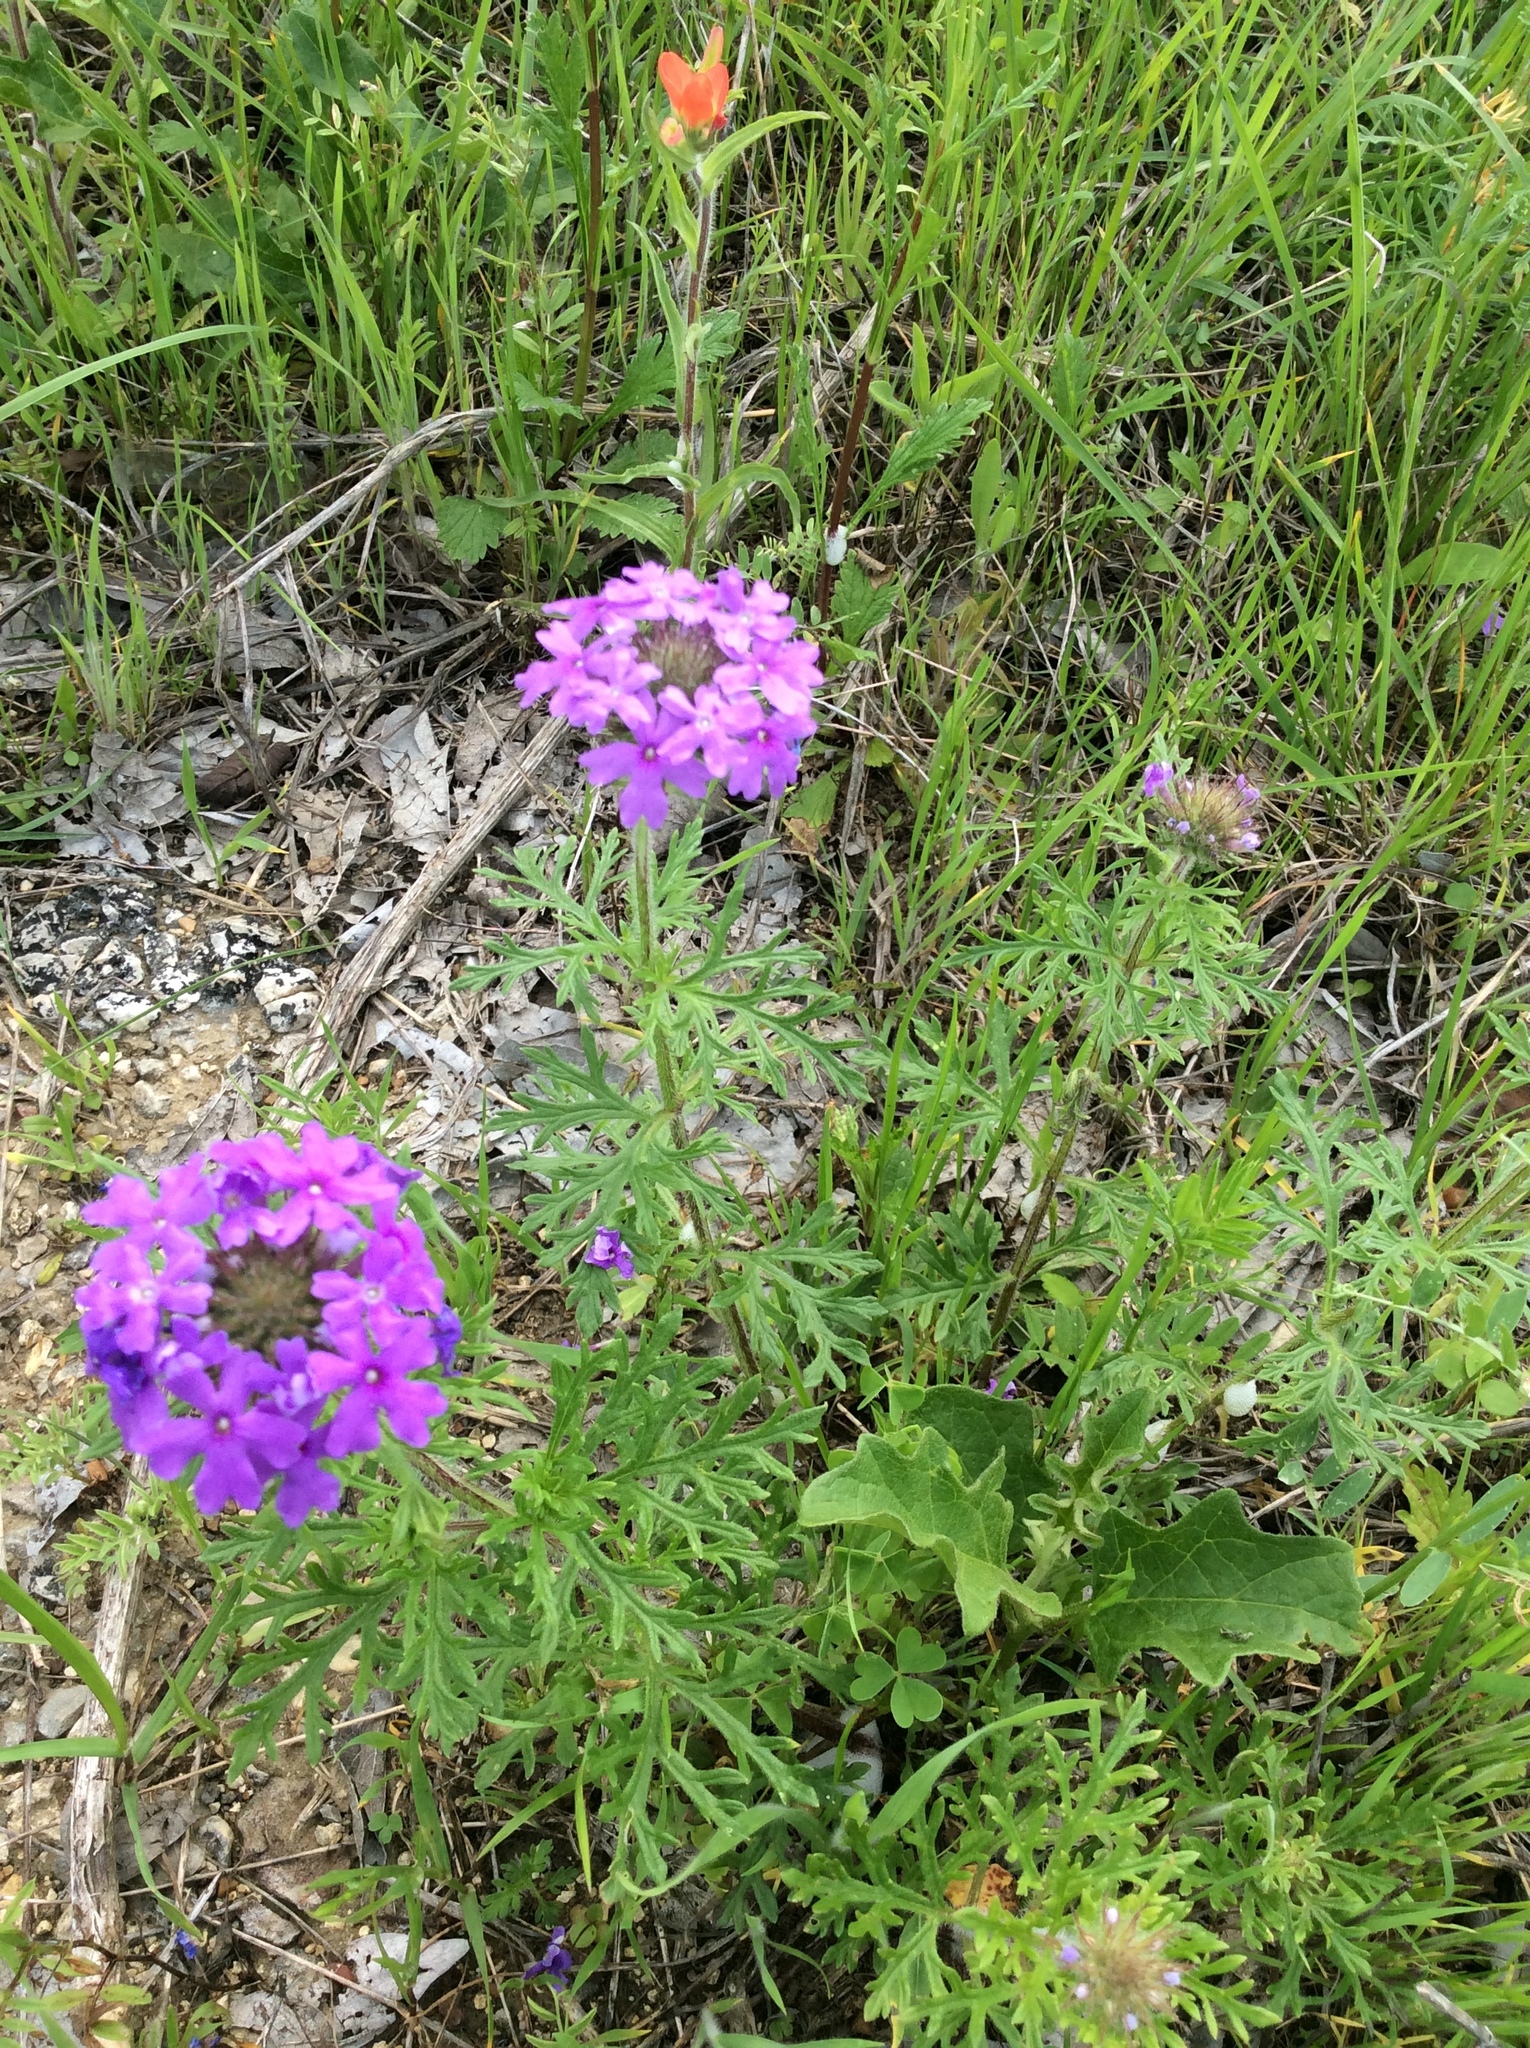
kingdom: Plantae
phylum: Tracheophyta
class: Magnoliopsida
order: Lamiales
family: Verbenaceae
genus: Verbena
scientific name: Verbena bipinnatifida
